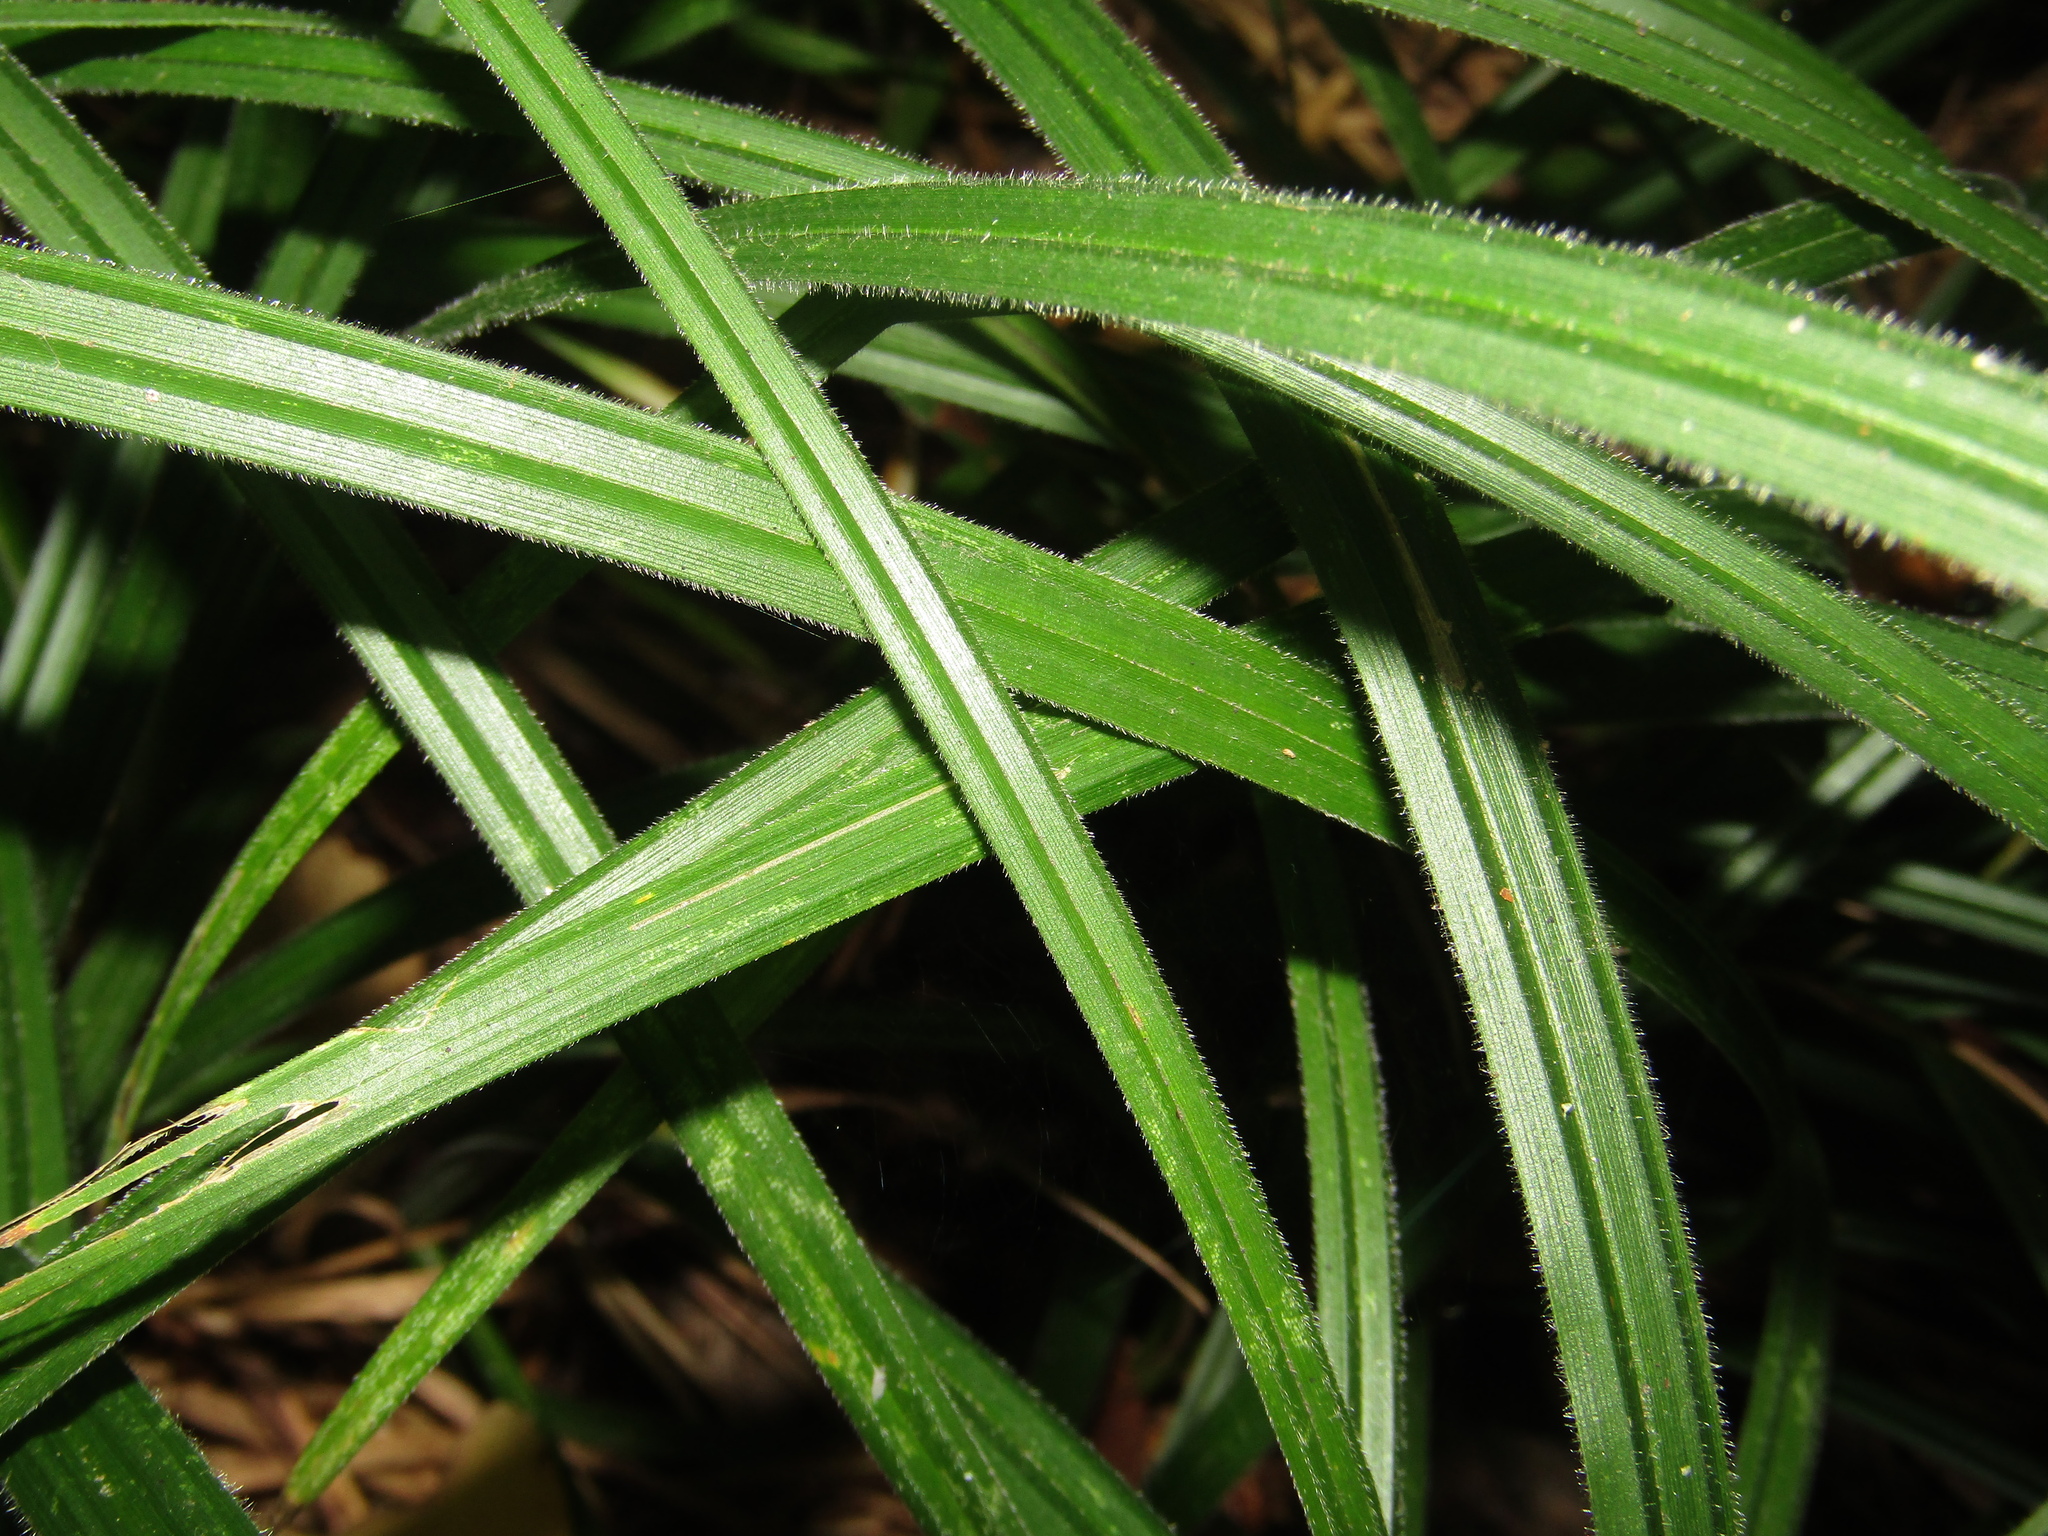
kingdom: Plantae
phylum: Tracheophyta
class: Liliopsida
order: Poales
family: Cyperaceae
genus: Carex
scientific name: Carex pilosa
